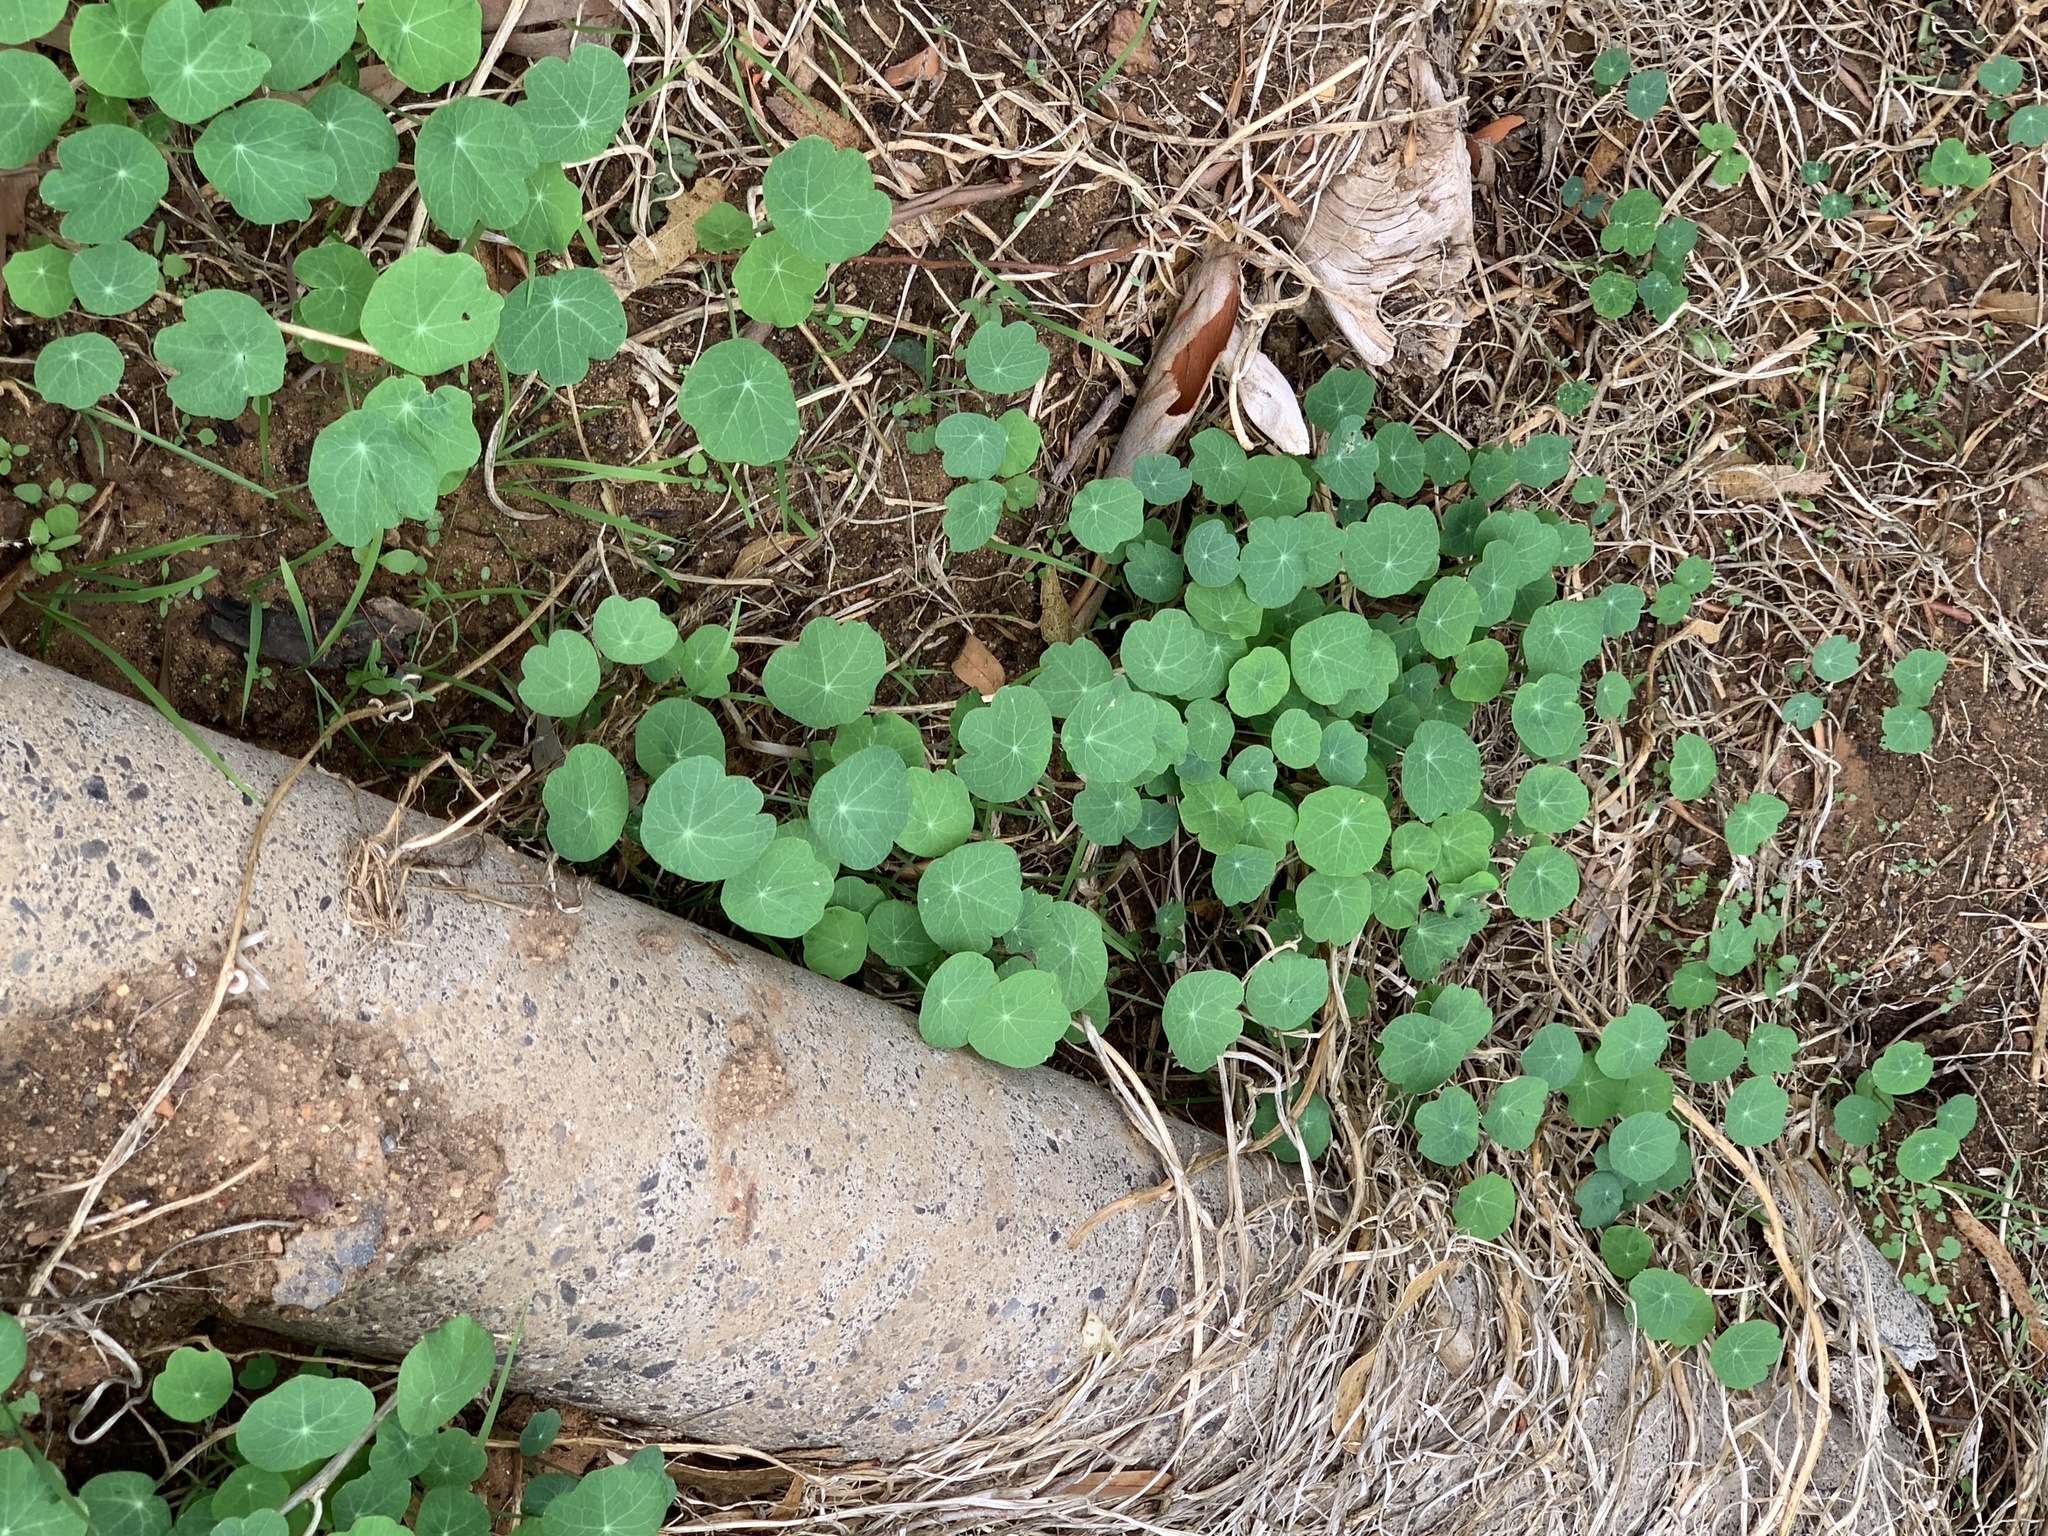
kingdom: Plantae
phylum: Tracheophyta
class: Magnoliopsida
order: Brassicales
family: Tropaeolaceae
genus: Tropaeolum
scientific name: Tropaeolum majus
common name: Nasturtium
